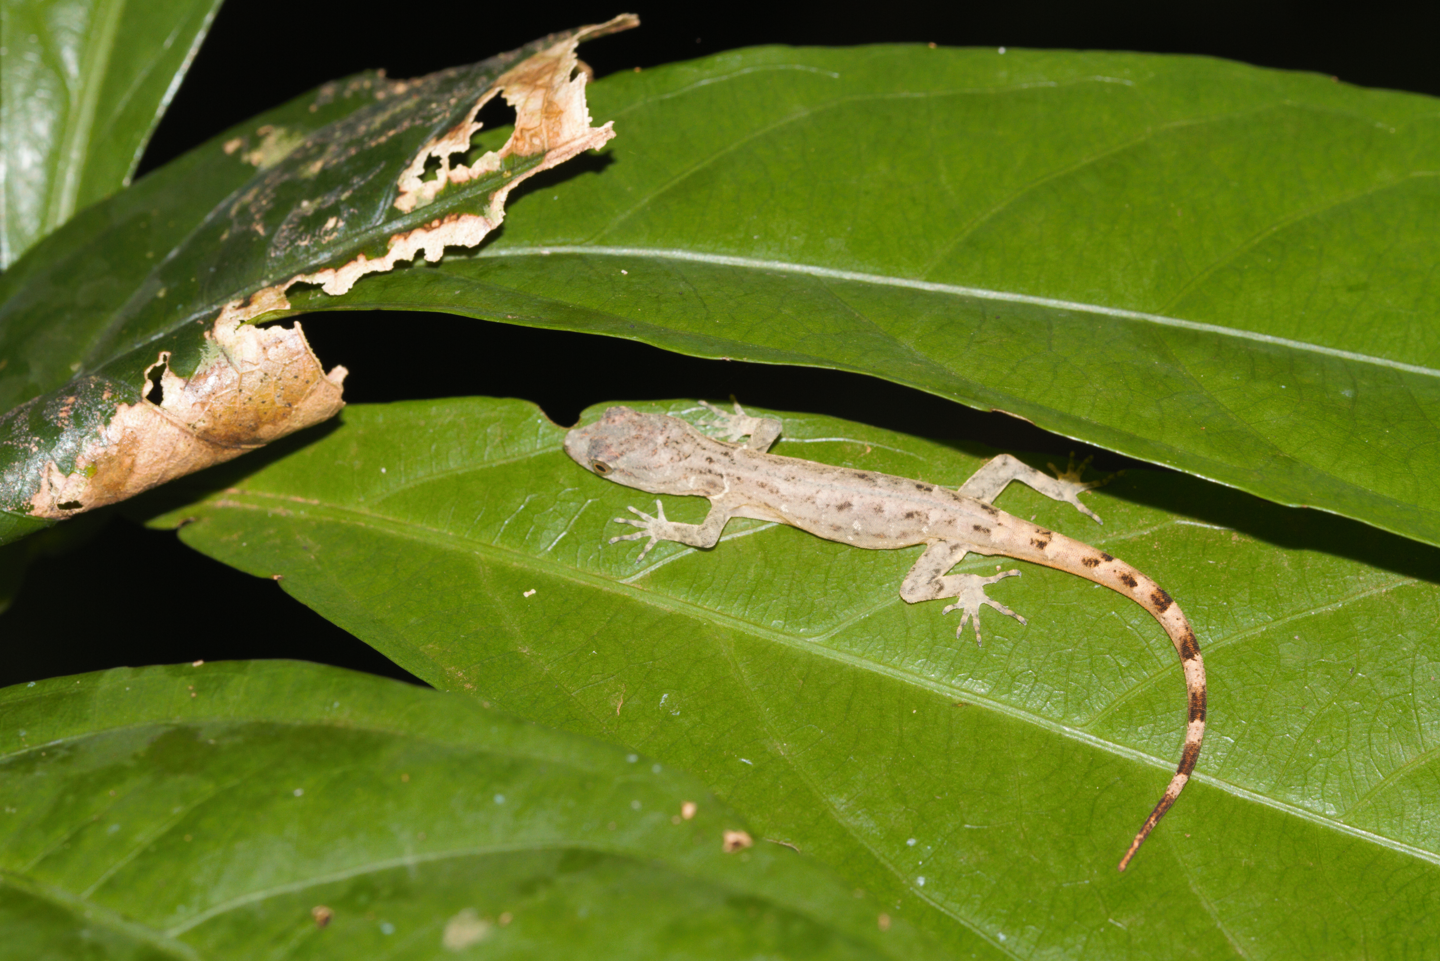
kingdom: Animalia
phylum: Chordata
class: Squamata
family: Sphaerodactylidae
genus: Gonatodes
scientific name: Gonatodes humeralis
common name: South american clawed gecko
